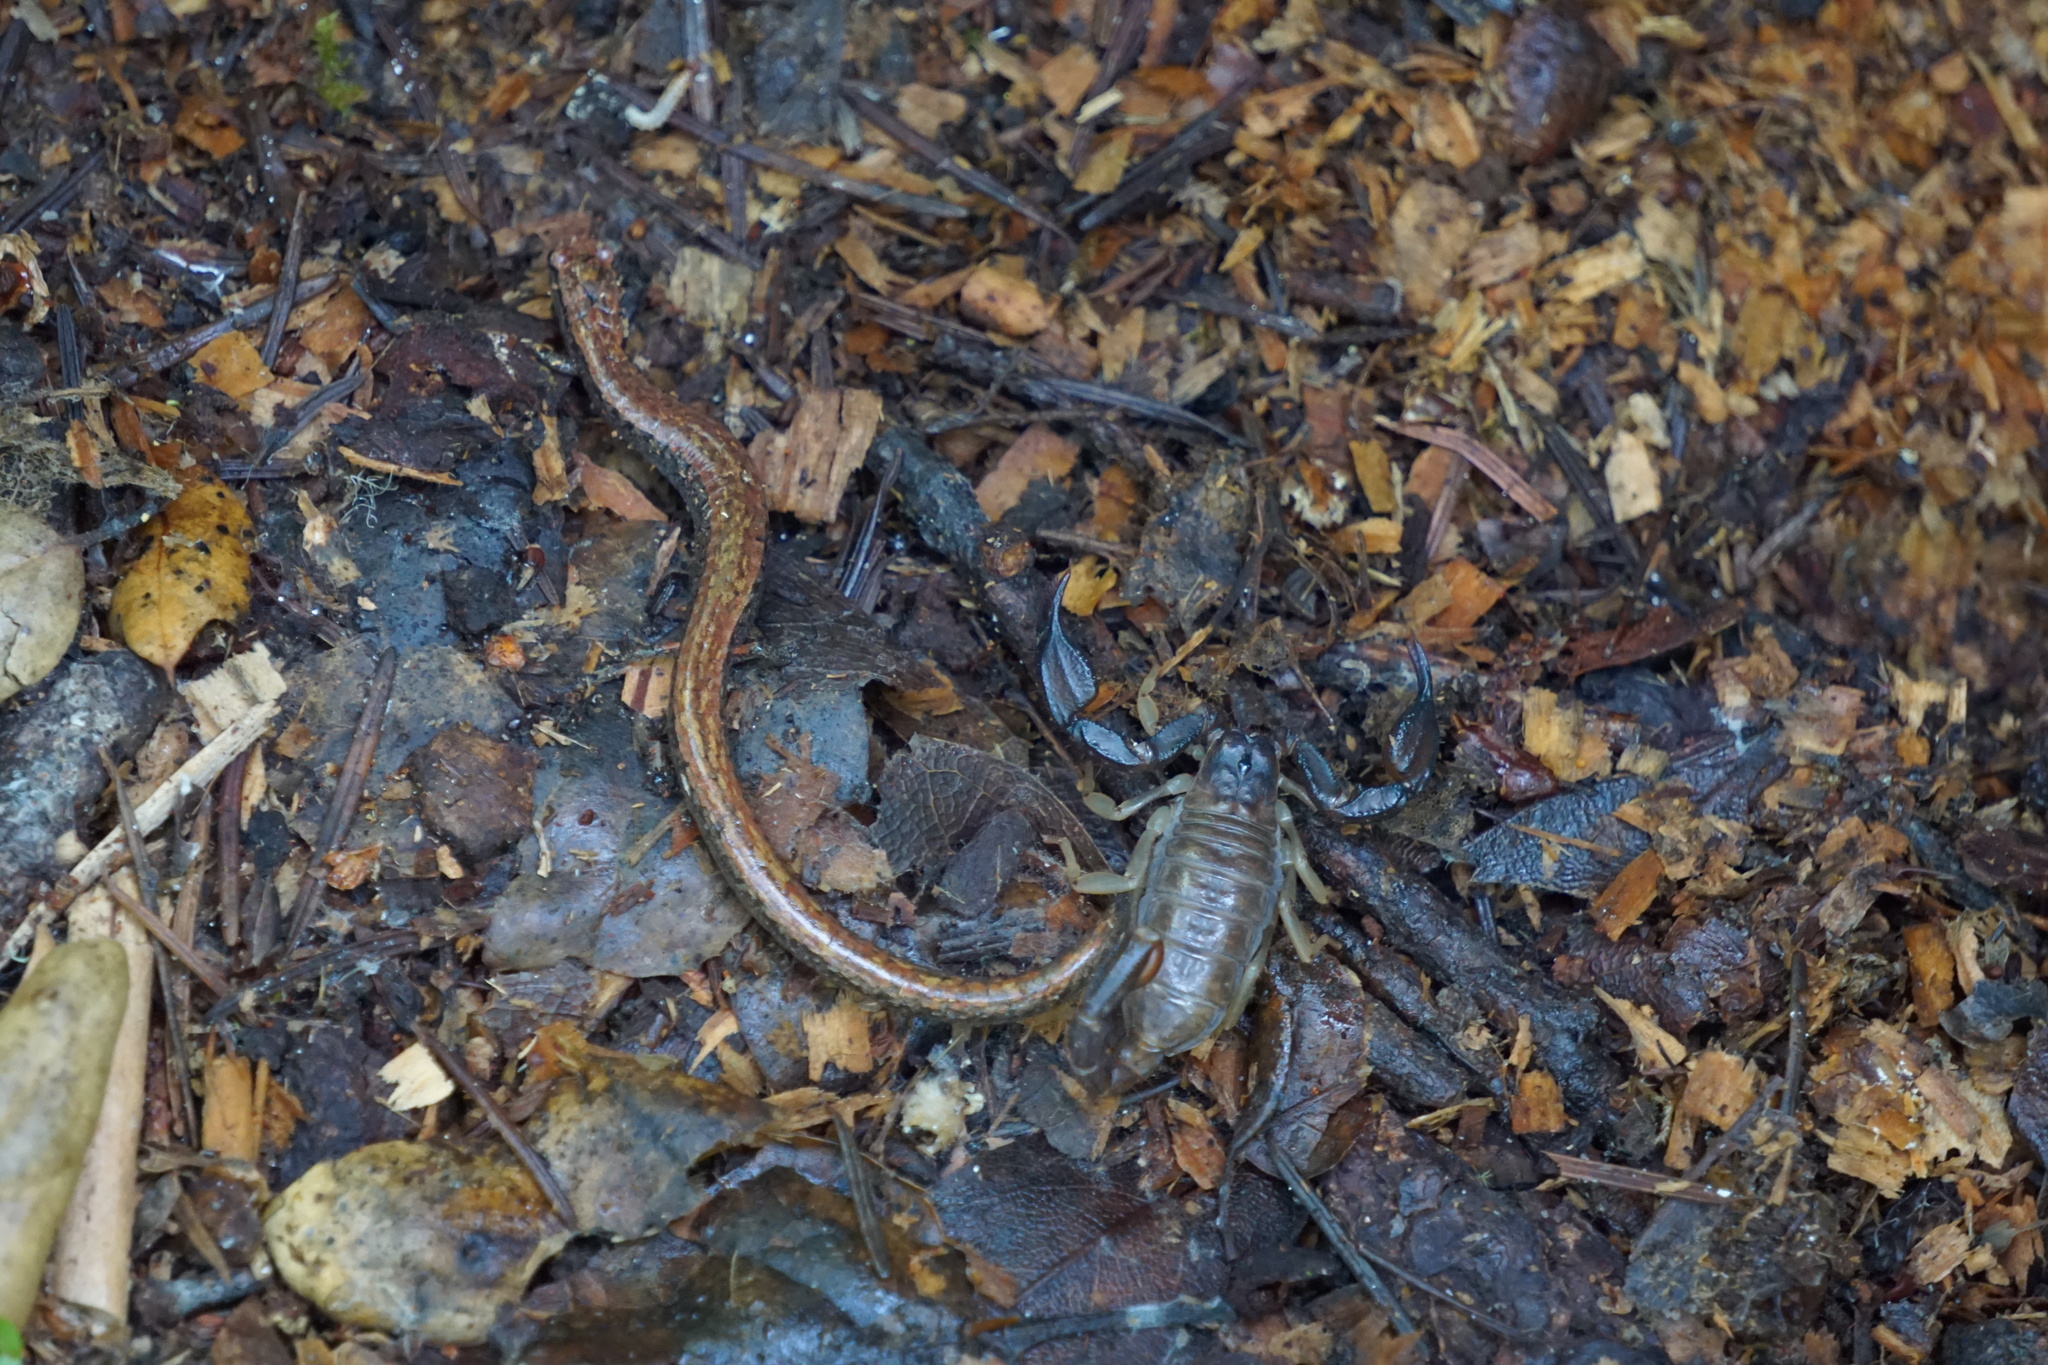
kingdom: Animalia
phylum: Chordata
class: Amphibia
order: Caudata
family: Plethodontidae
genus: Batrachoseps
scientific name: Batrachoseps attenuatus
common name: California slender salamander
